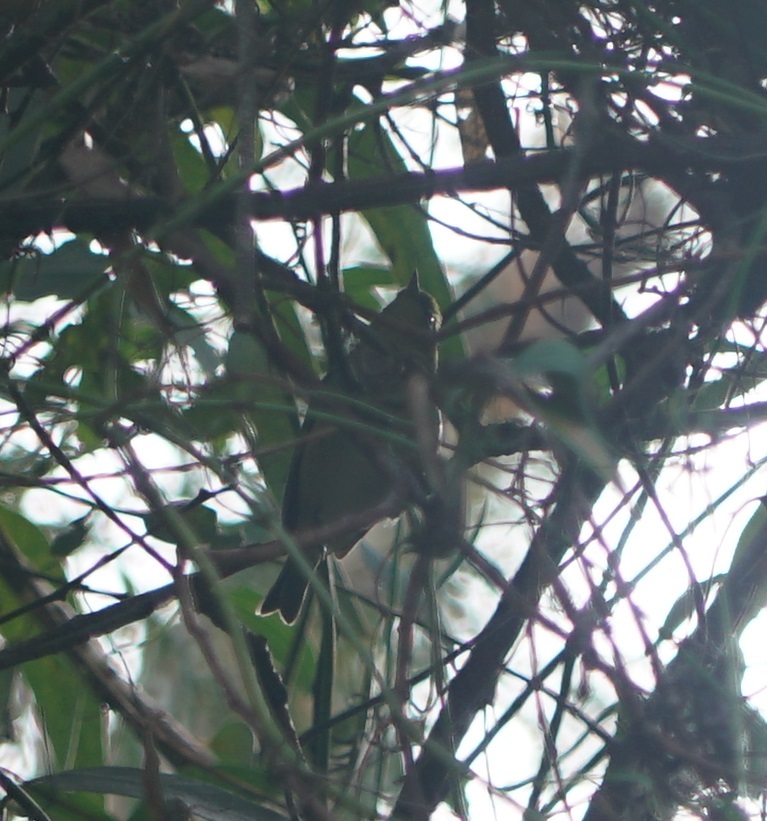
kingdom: Animalia
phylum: Chordata
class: Aves
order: Passeriformes
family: Zosteropidae
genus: Zosterops
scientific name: Zosterops lateralis
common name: Silvereye
